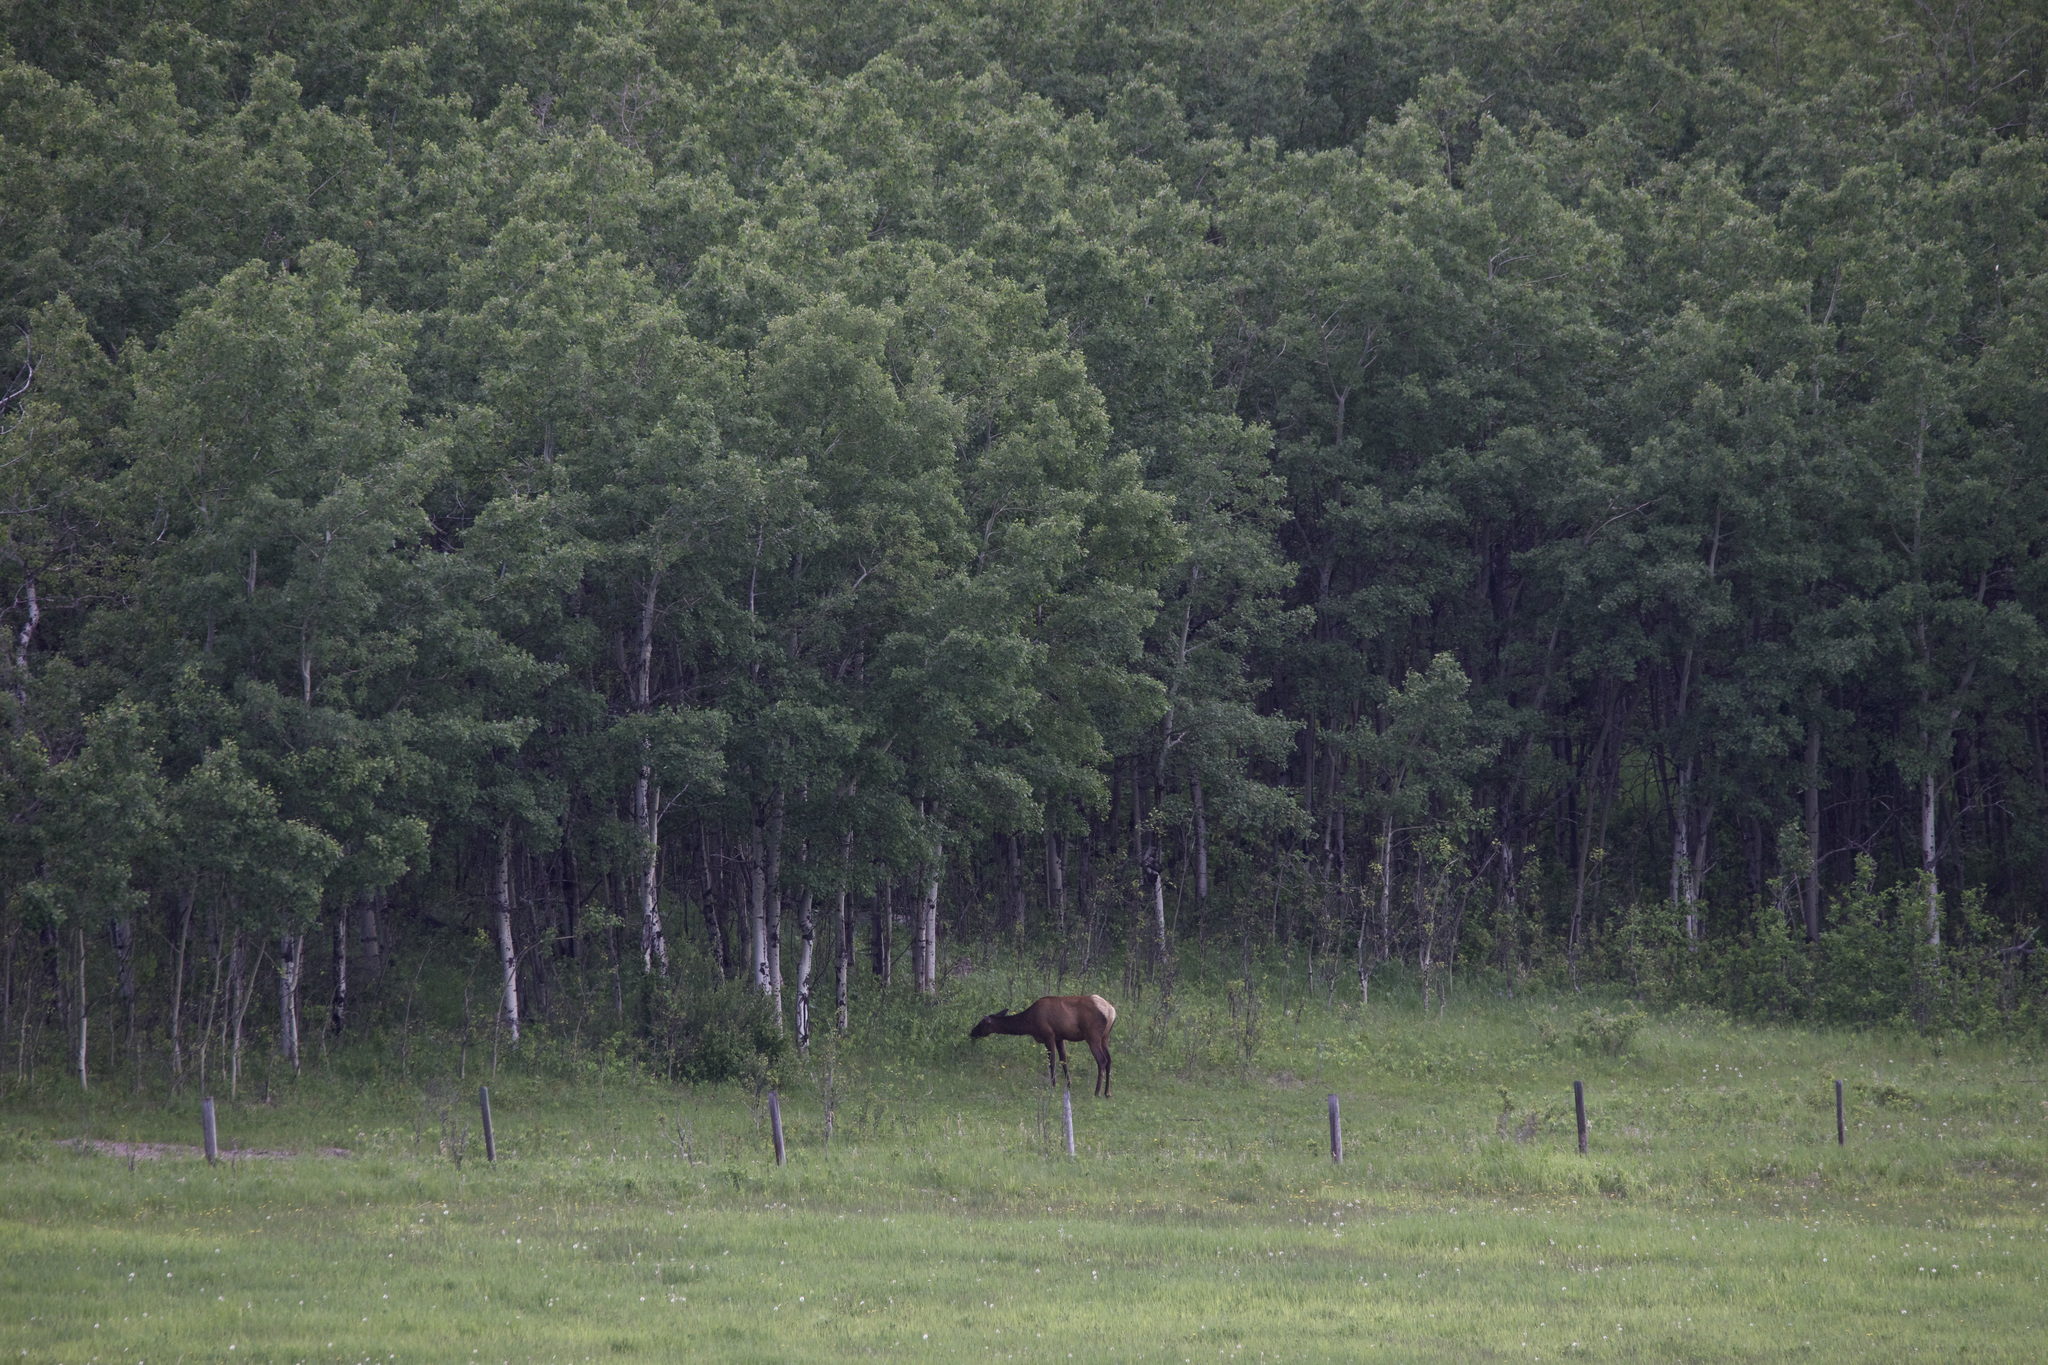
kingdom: Animalia
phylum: Chordata
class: Mammalia
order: Artiodactyla
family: Cervidae
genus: Cervus
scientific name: Cervus elaphus
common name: Red deer
